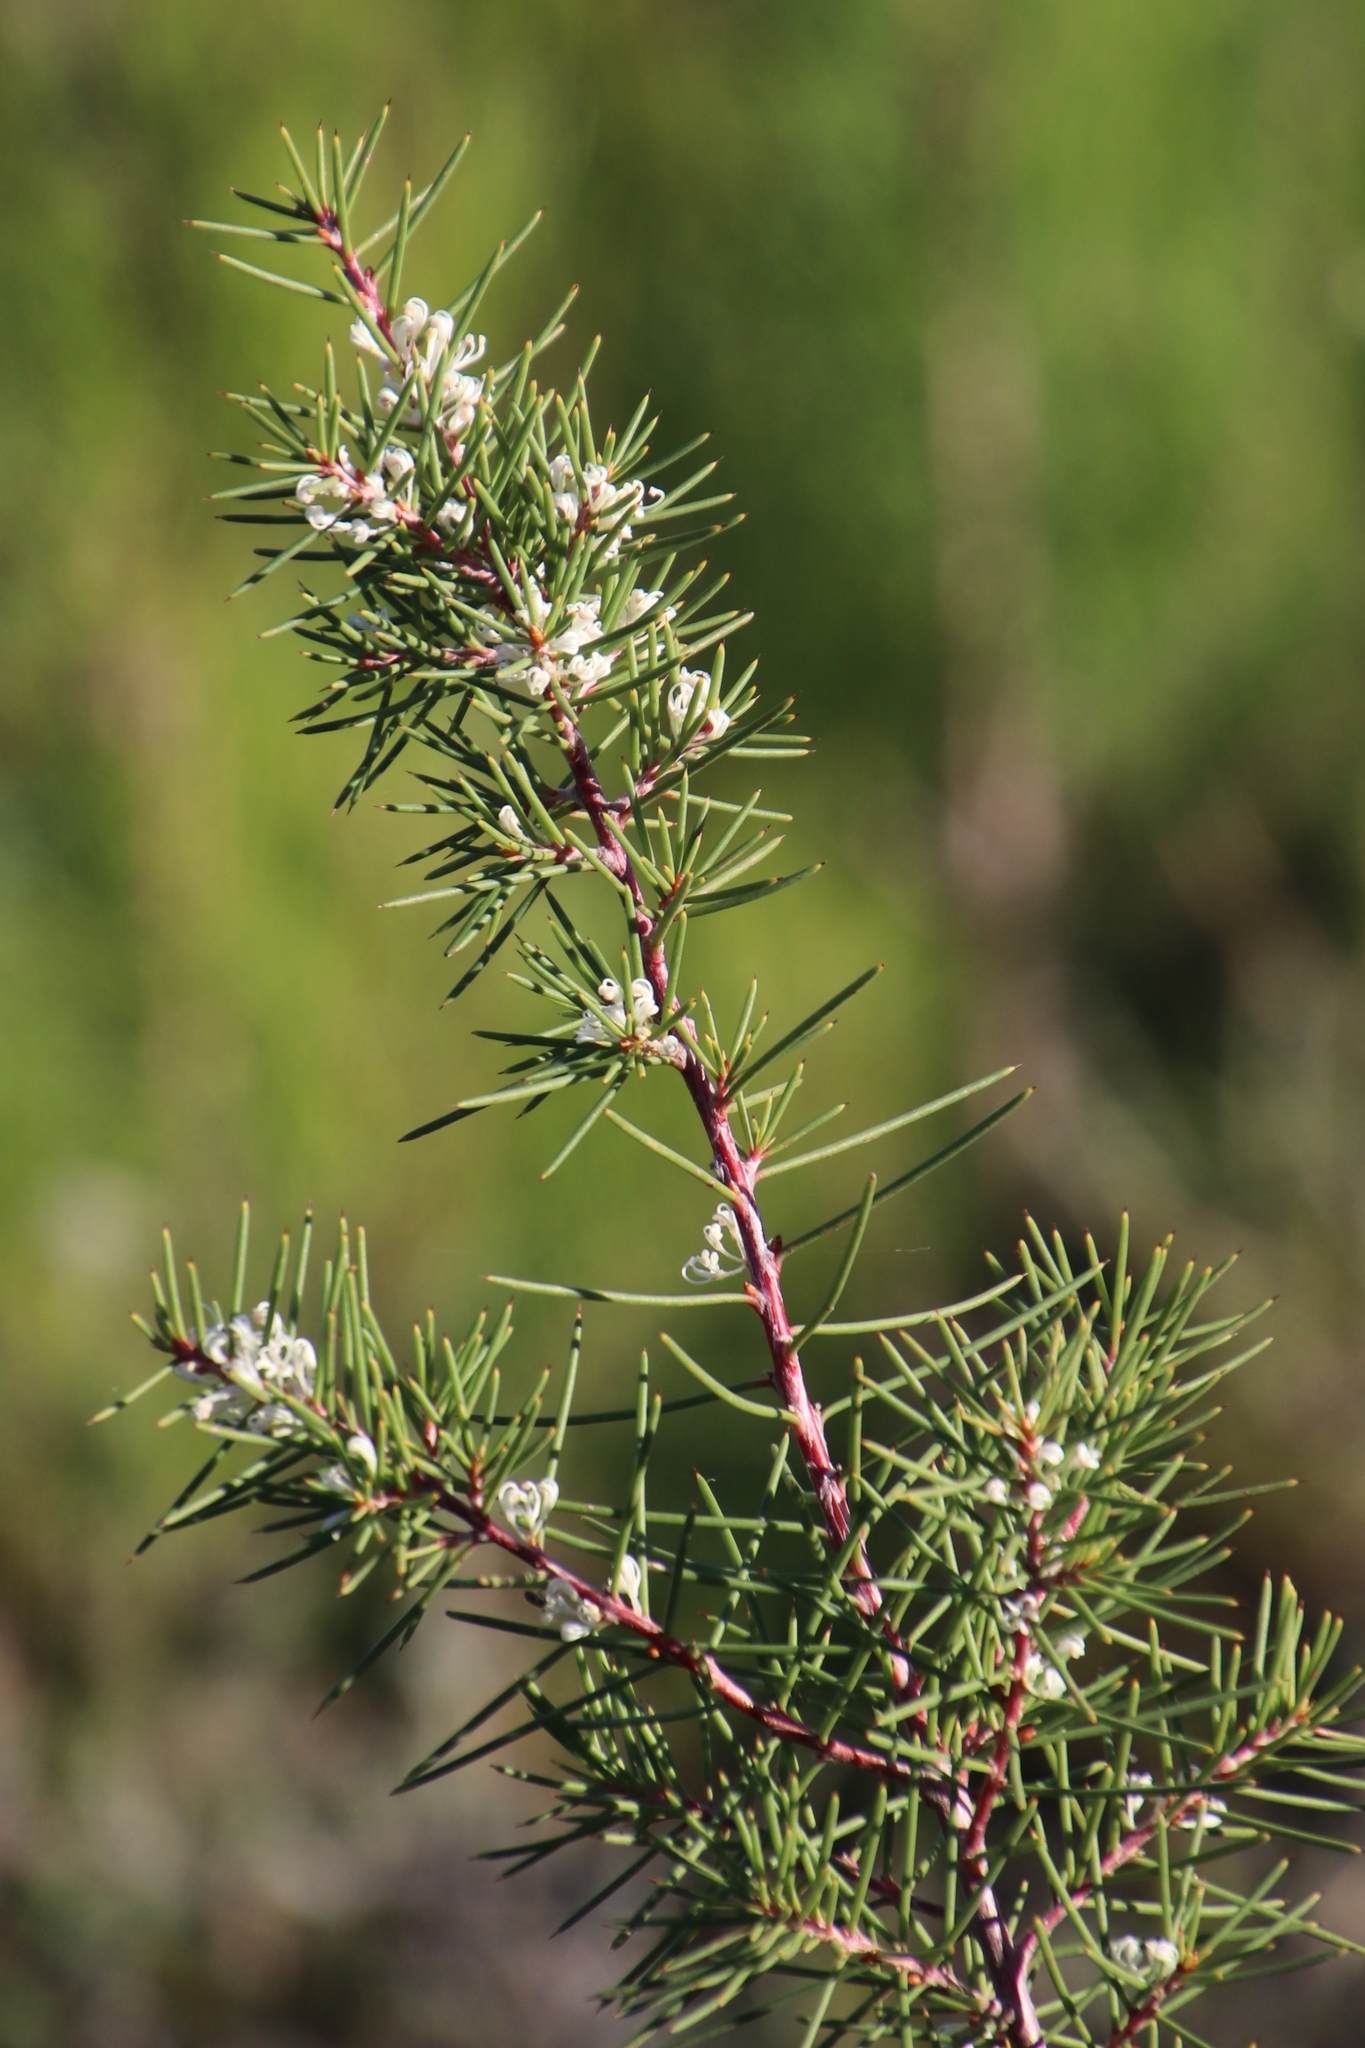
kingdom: Plantae
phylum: Tracheophyta
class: Magnoliopsida
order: Proteales
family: Proteaceae
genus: Hakea
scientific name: Hakea sericea
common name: Needle bush
